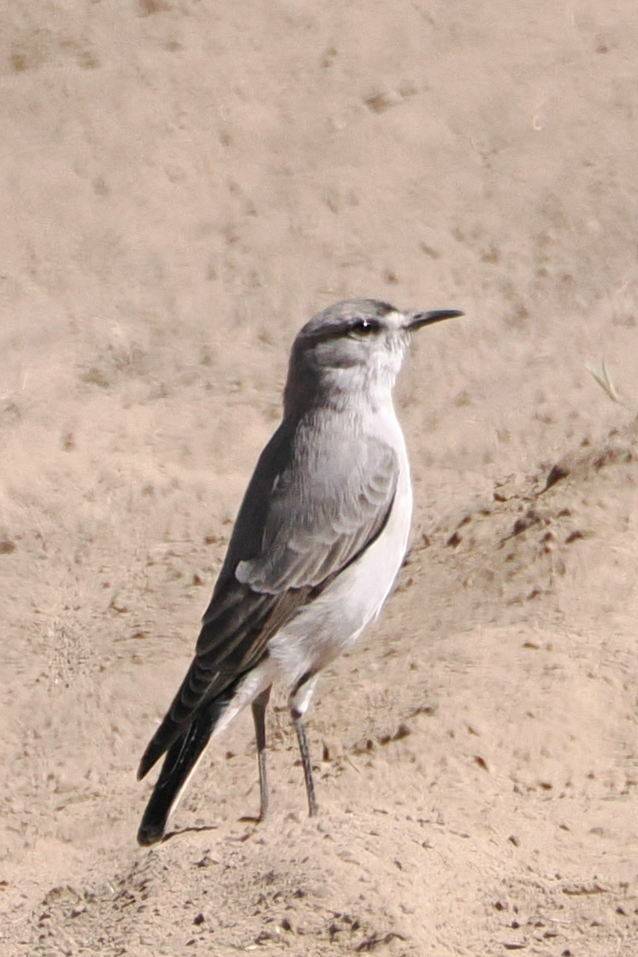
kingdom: Animalia
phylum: Chordata
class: Aves
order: Passeriformes
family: Tyrannidae
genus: Muscisaxicola
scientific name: Muscisaxicola frontalis
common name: Black-fronted ground tyrant
